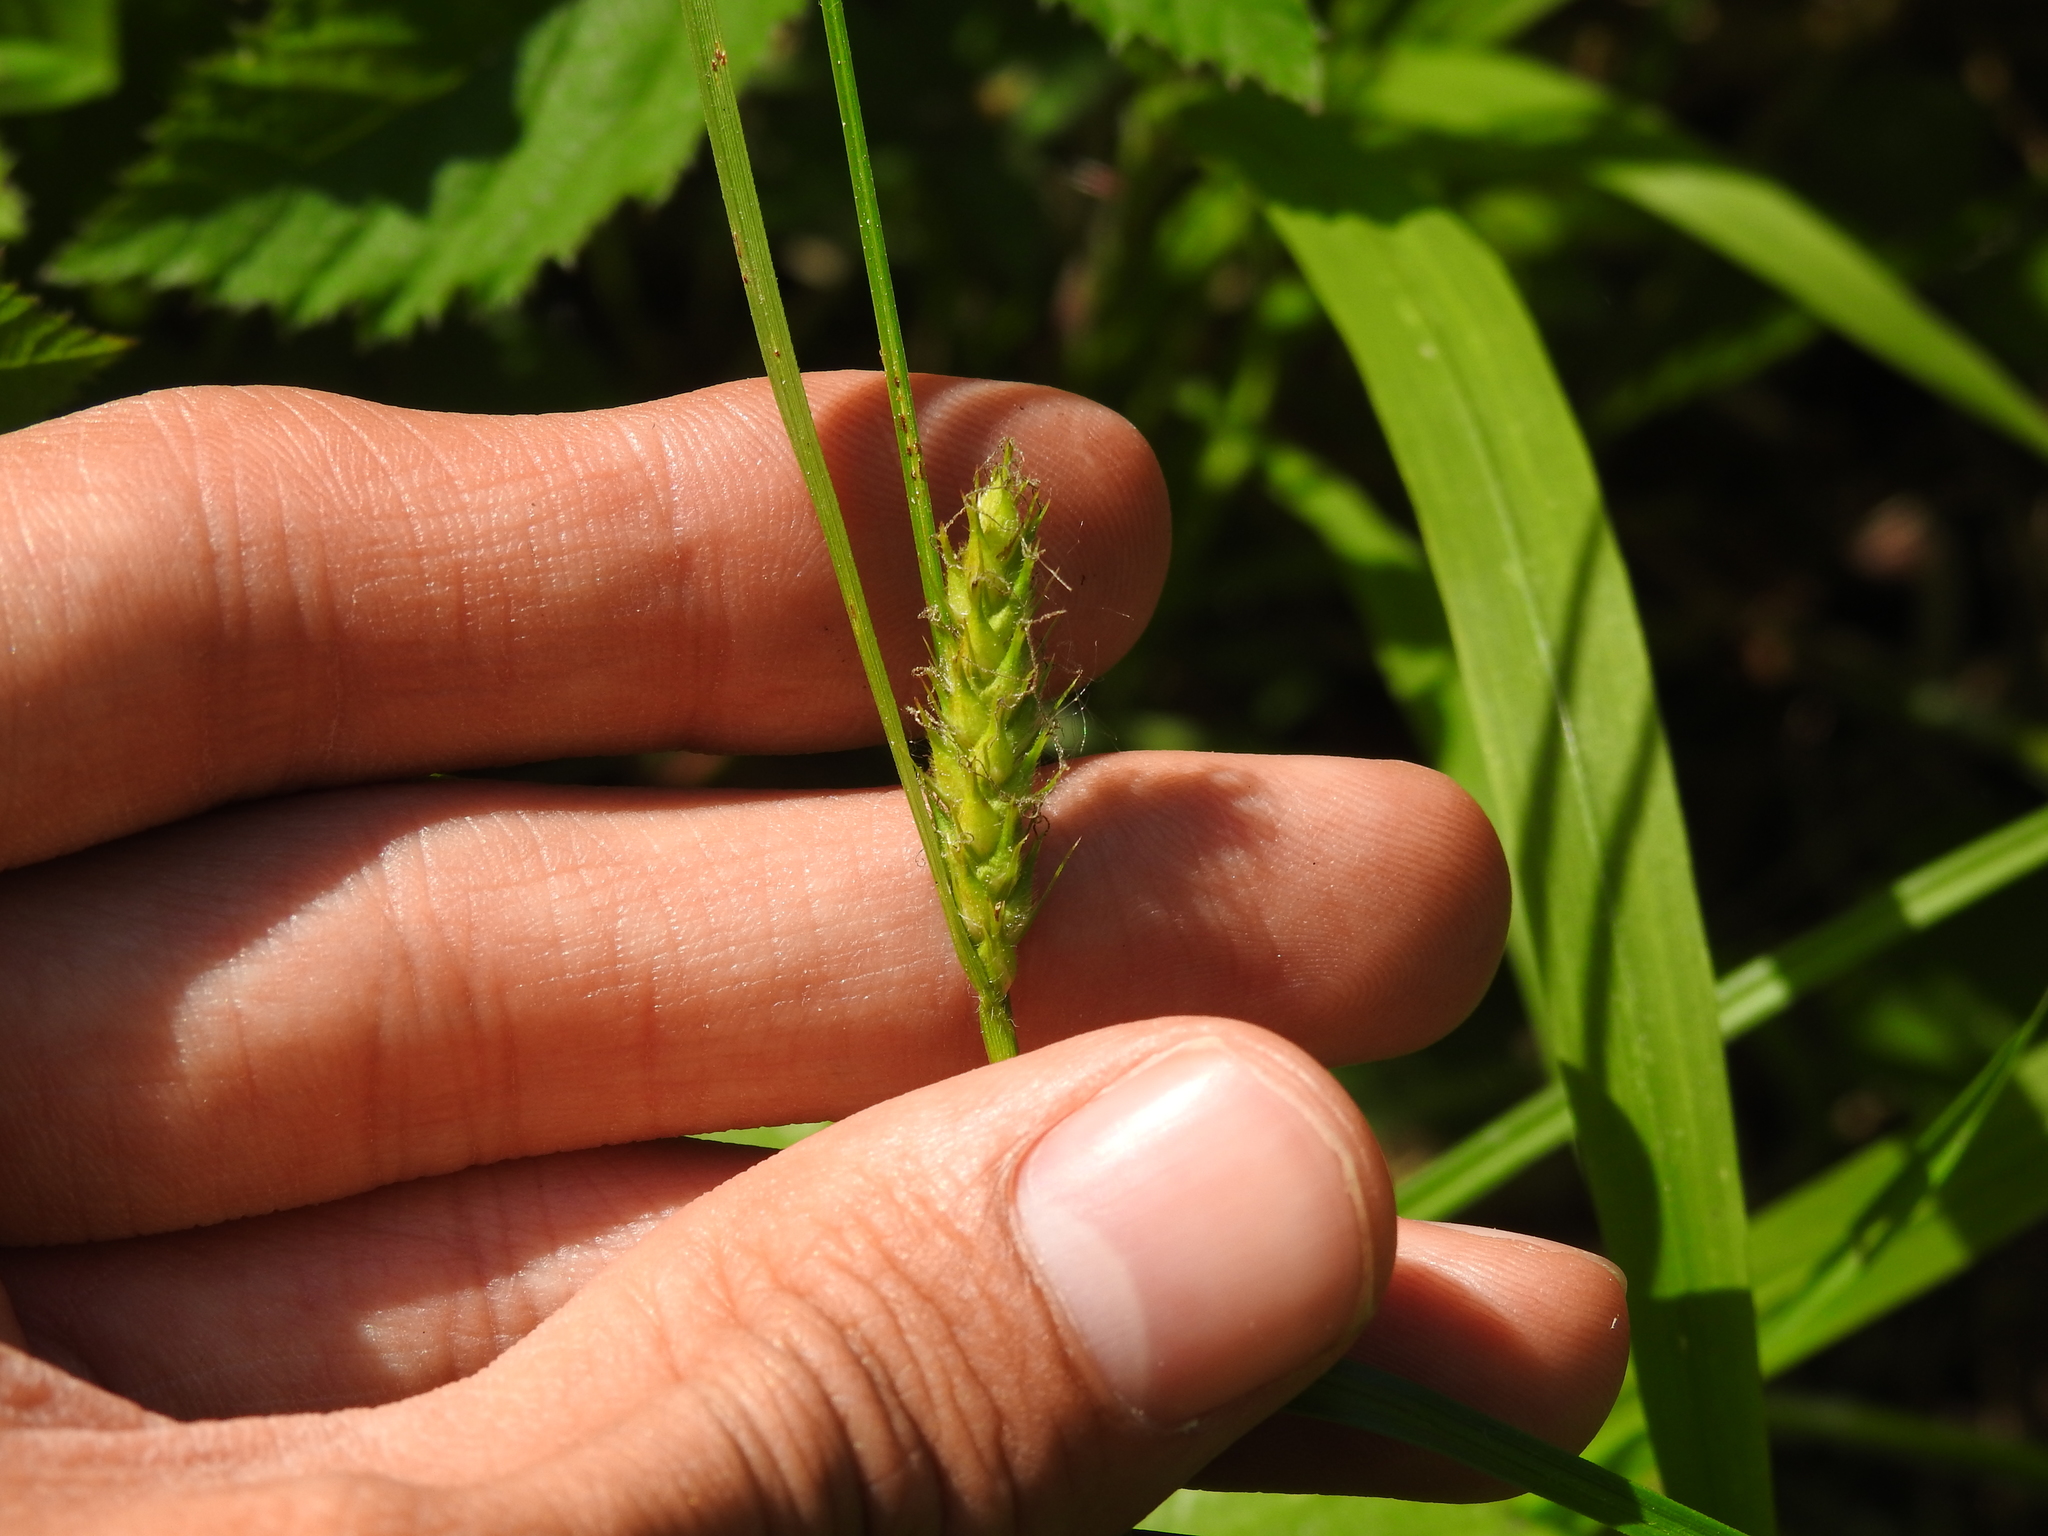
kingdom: Plantae
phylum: Tracheophyta
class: Liliopsida
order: Poales
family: Cyperaceae
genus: Carex
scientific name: Carex hirta
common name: Hairy sedge
